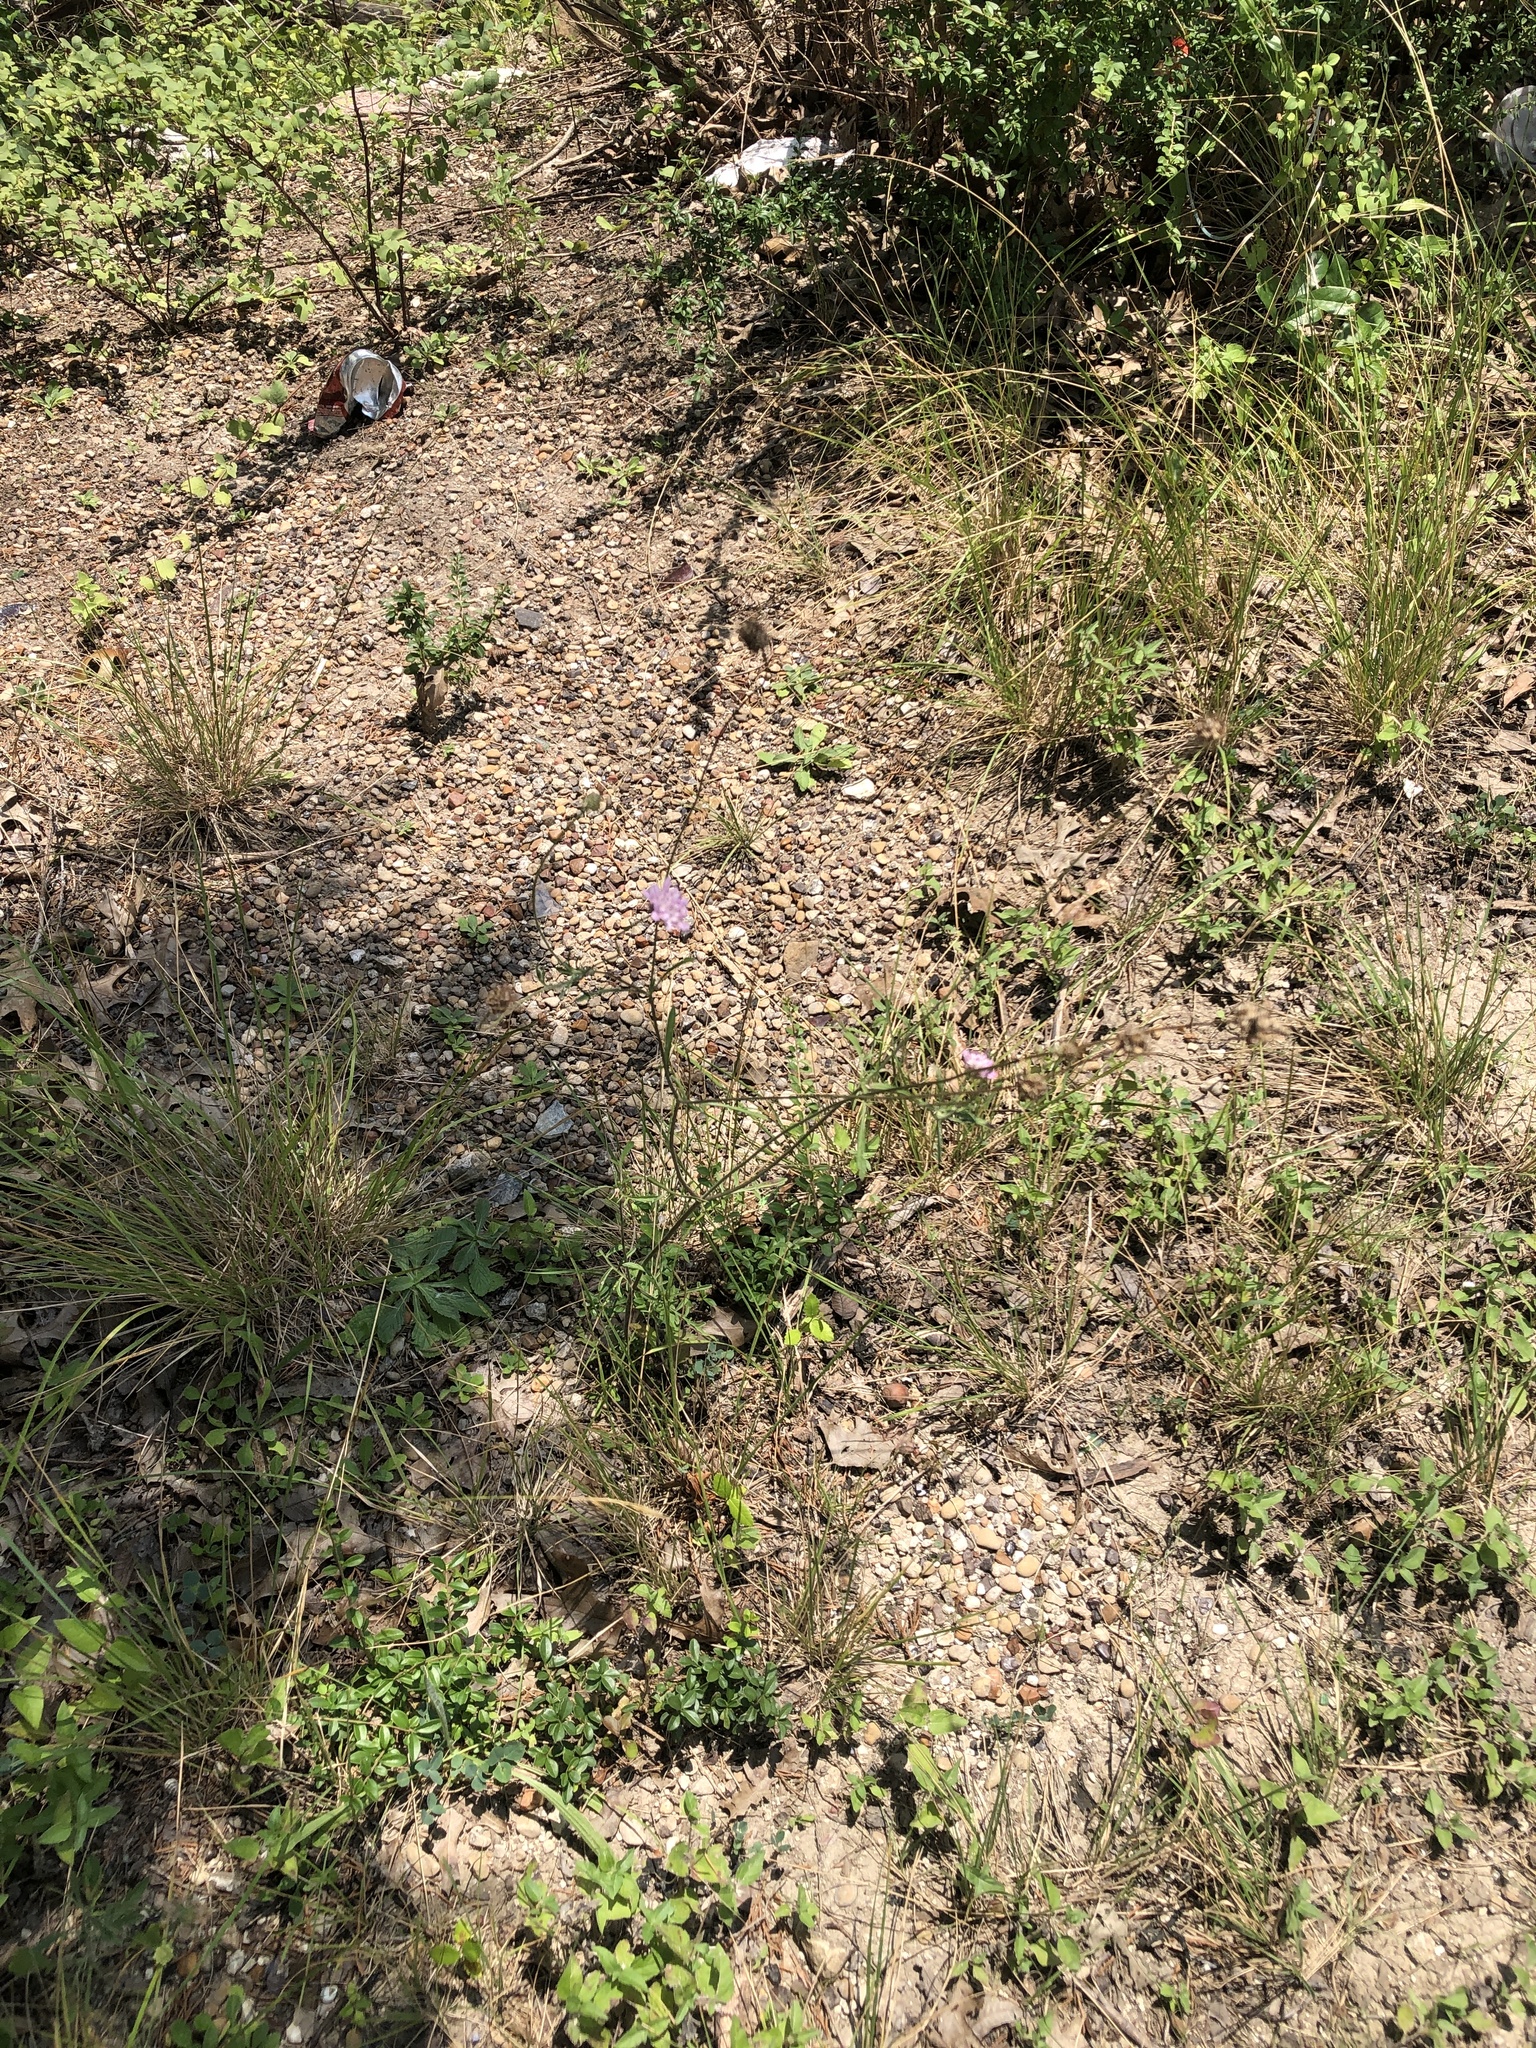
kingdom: Plantae
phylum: Tracheophyta
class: Magnoliopsida
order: Dipsacales
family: Caprifoliaceae
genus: Sixalix
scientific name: Sixalix atropurpurea
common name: Sweet scabious
